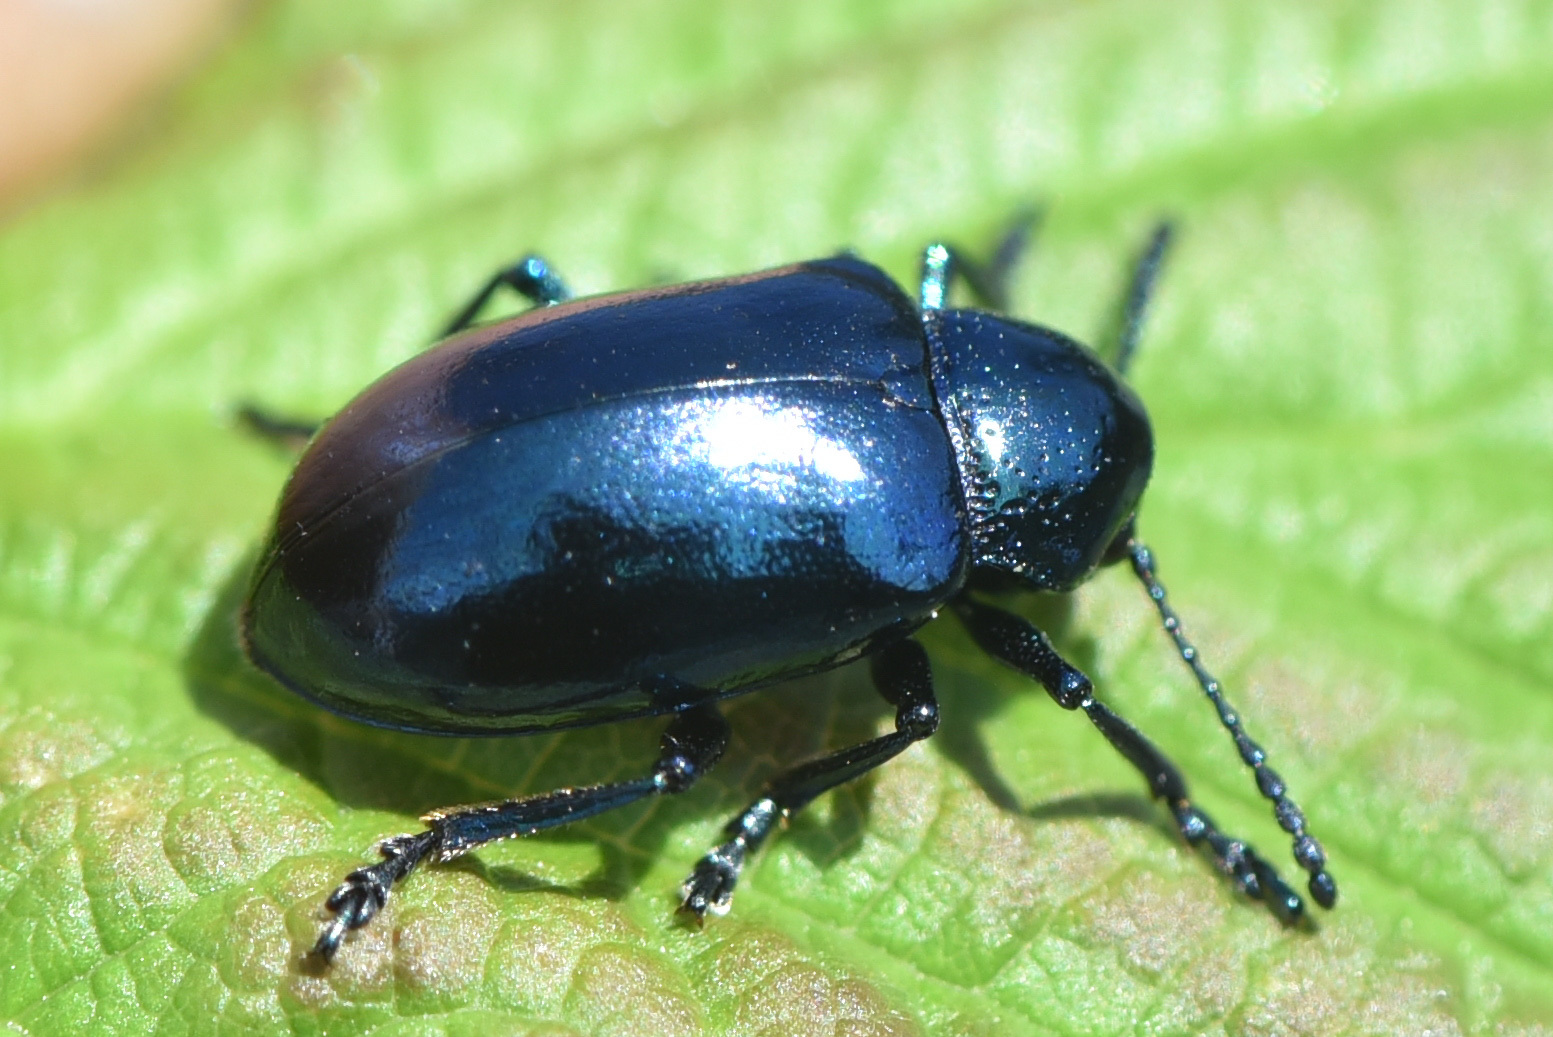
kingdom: Animalia
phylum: Arthropoda
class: Insecta
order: Coleoptera
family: Chrysomelidae
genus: Chrysochus
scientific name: Chrysochus cobaltinus
